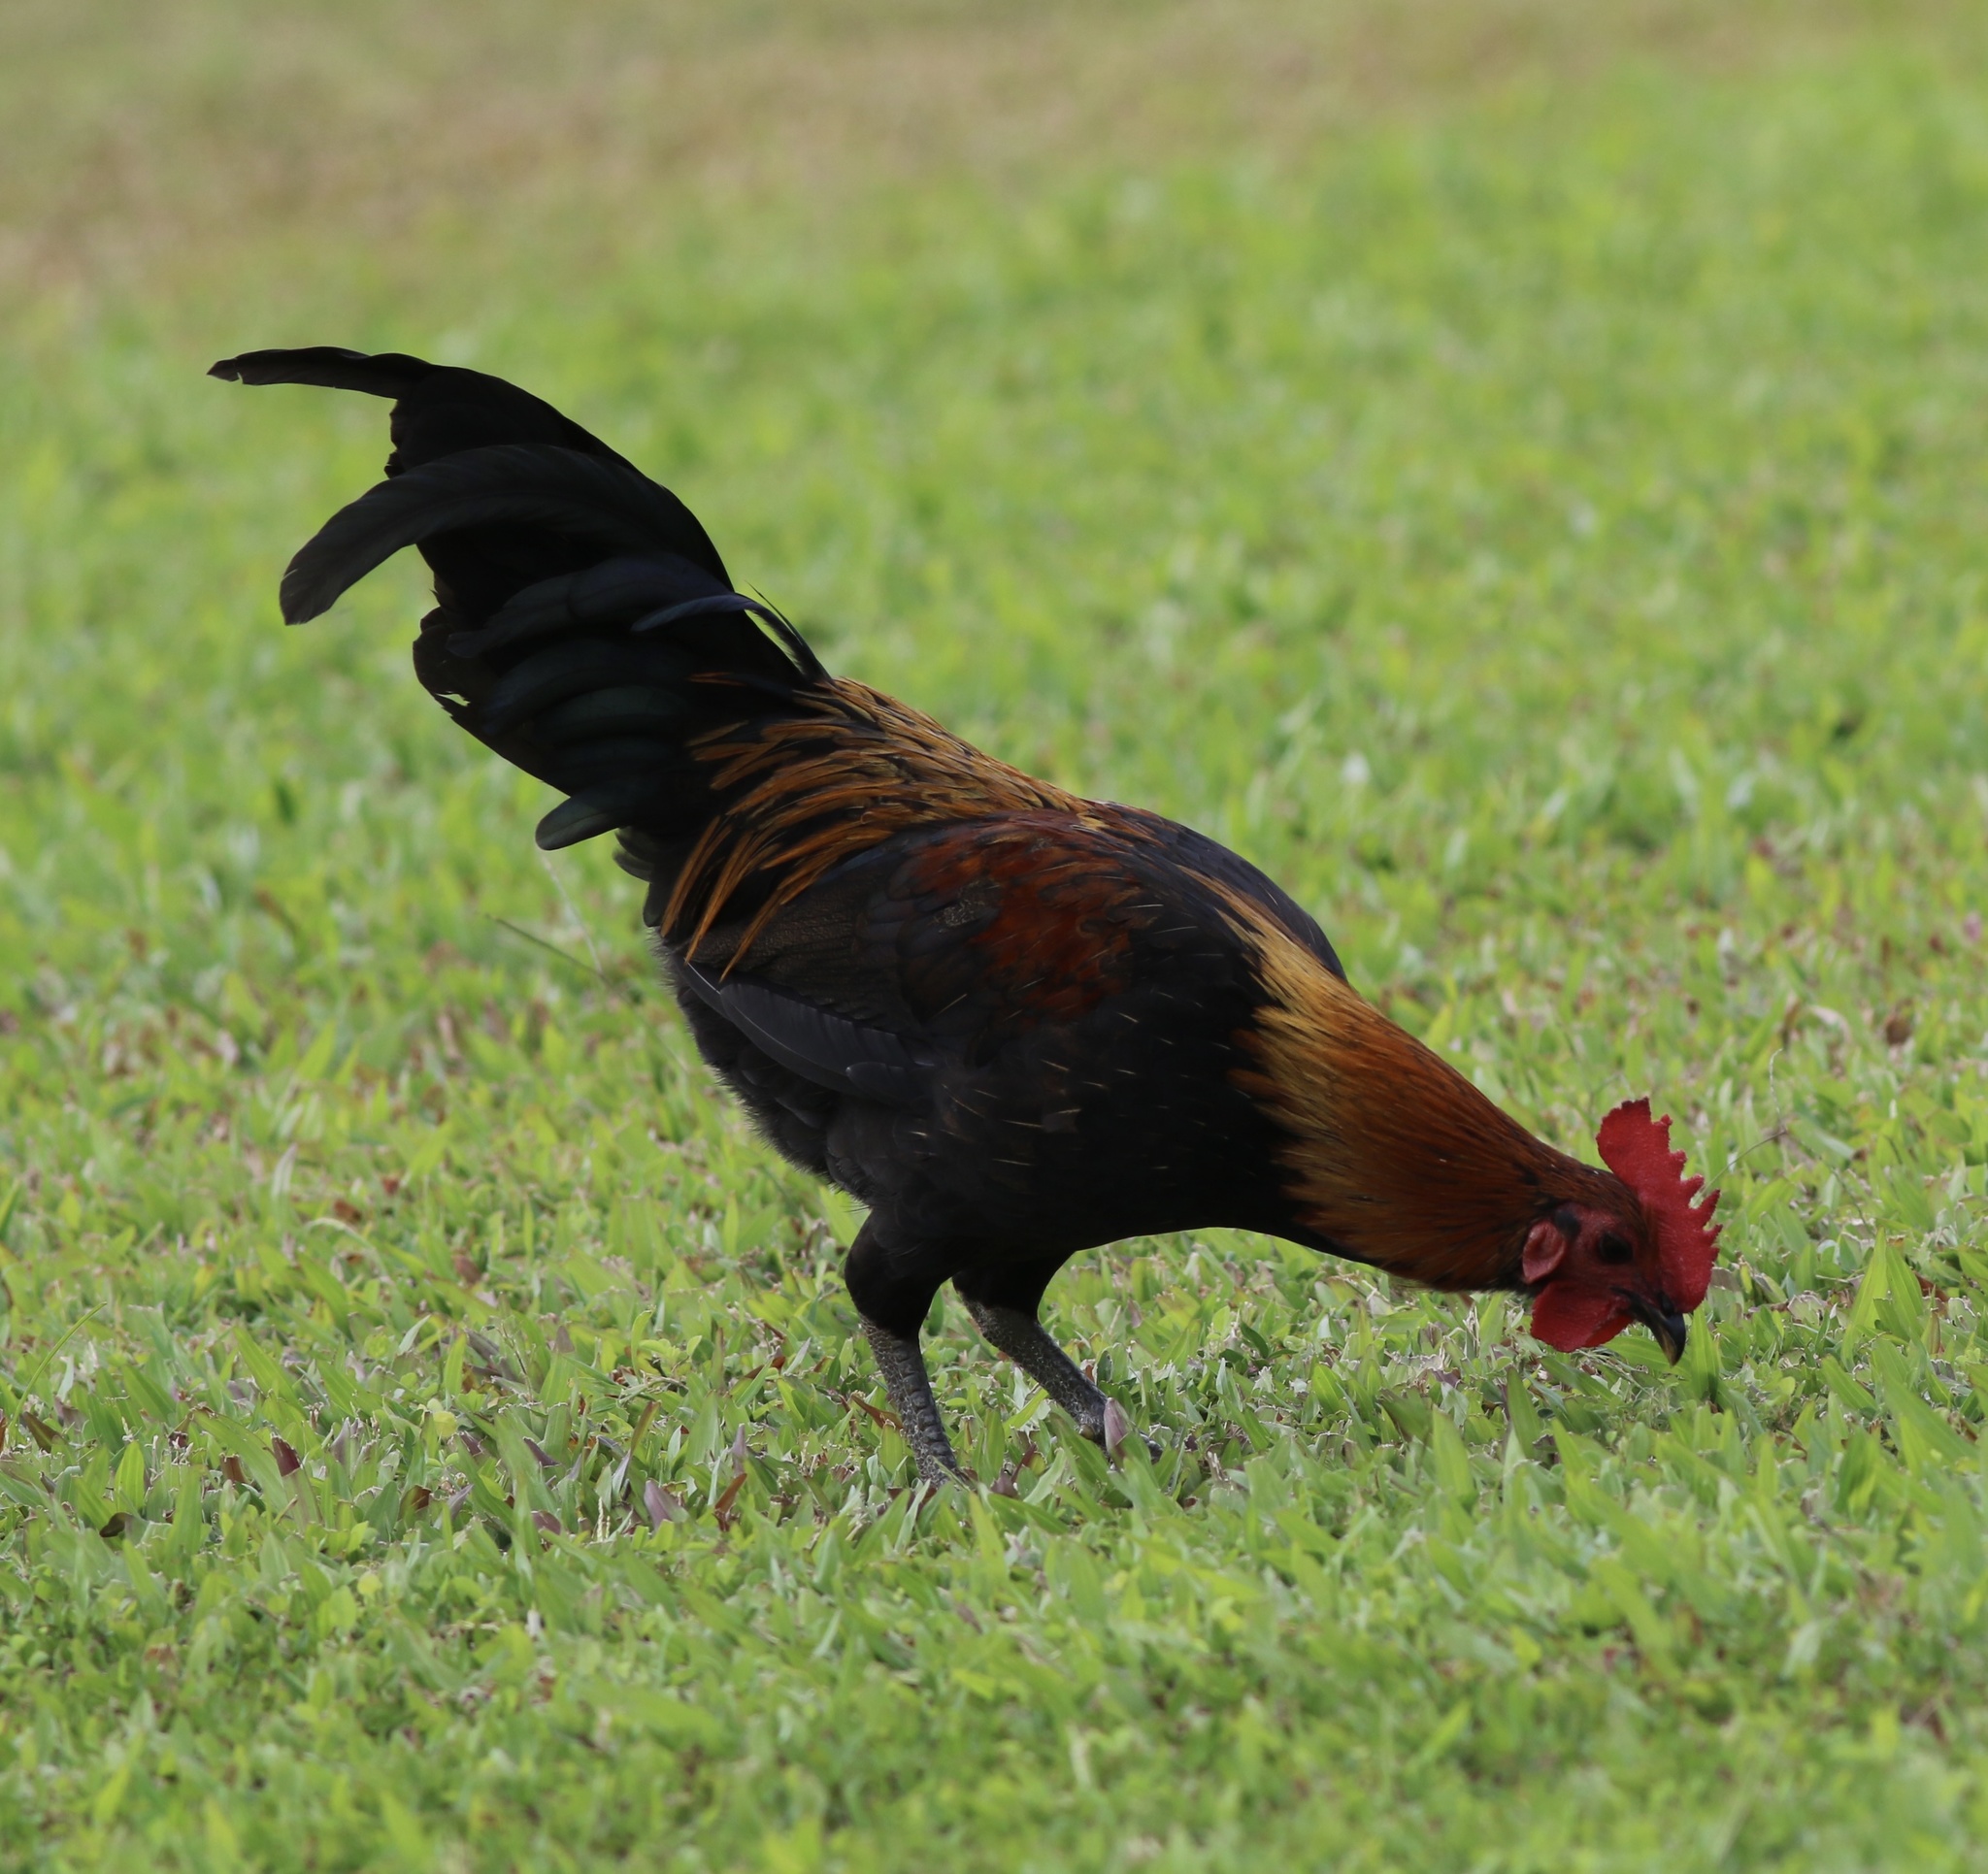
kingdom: Animalia
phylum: Chordata
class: Aves
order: Galliformes
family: Phasianidae
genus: Gallus
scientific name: Gallus gallus
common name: Red junglefowl
